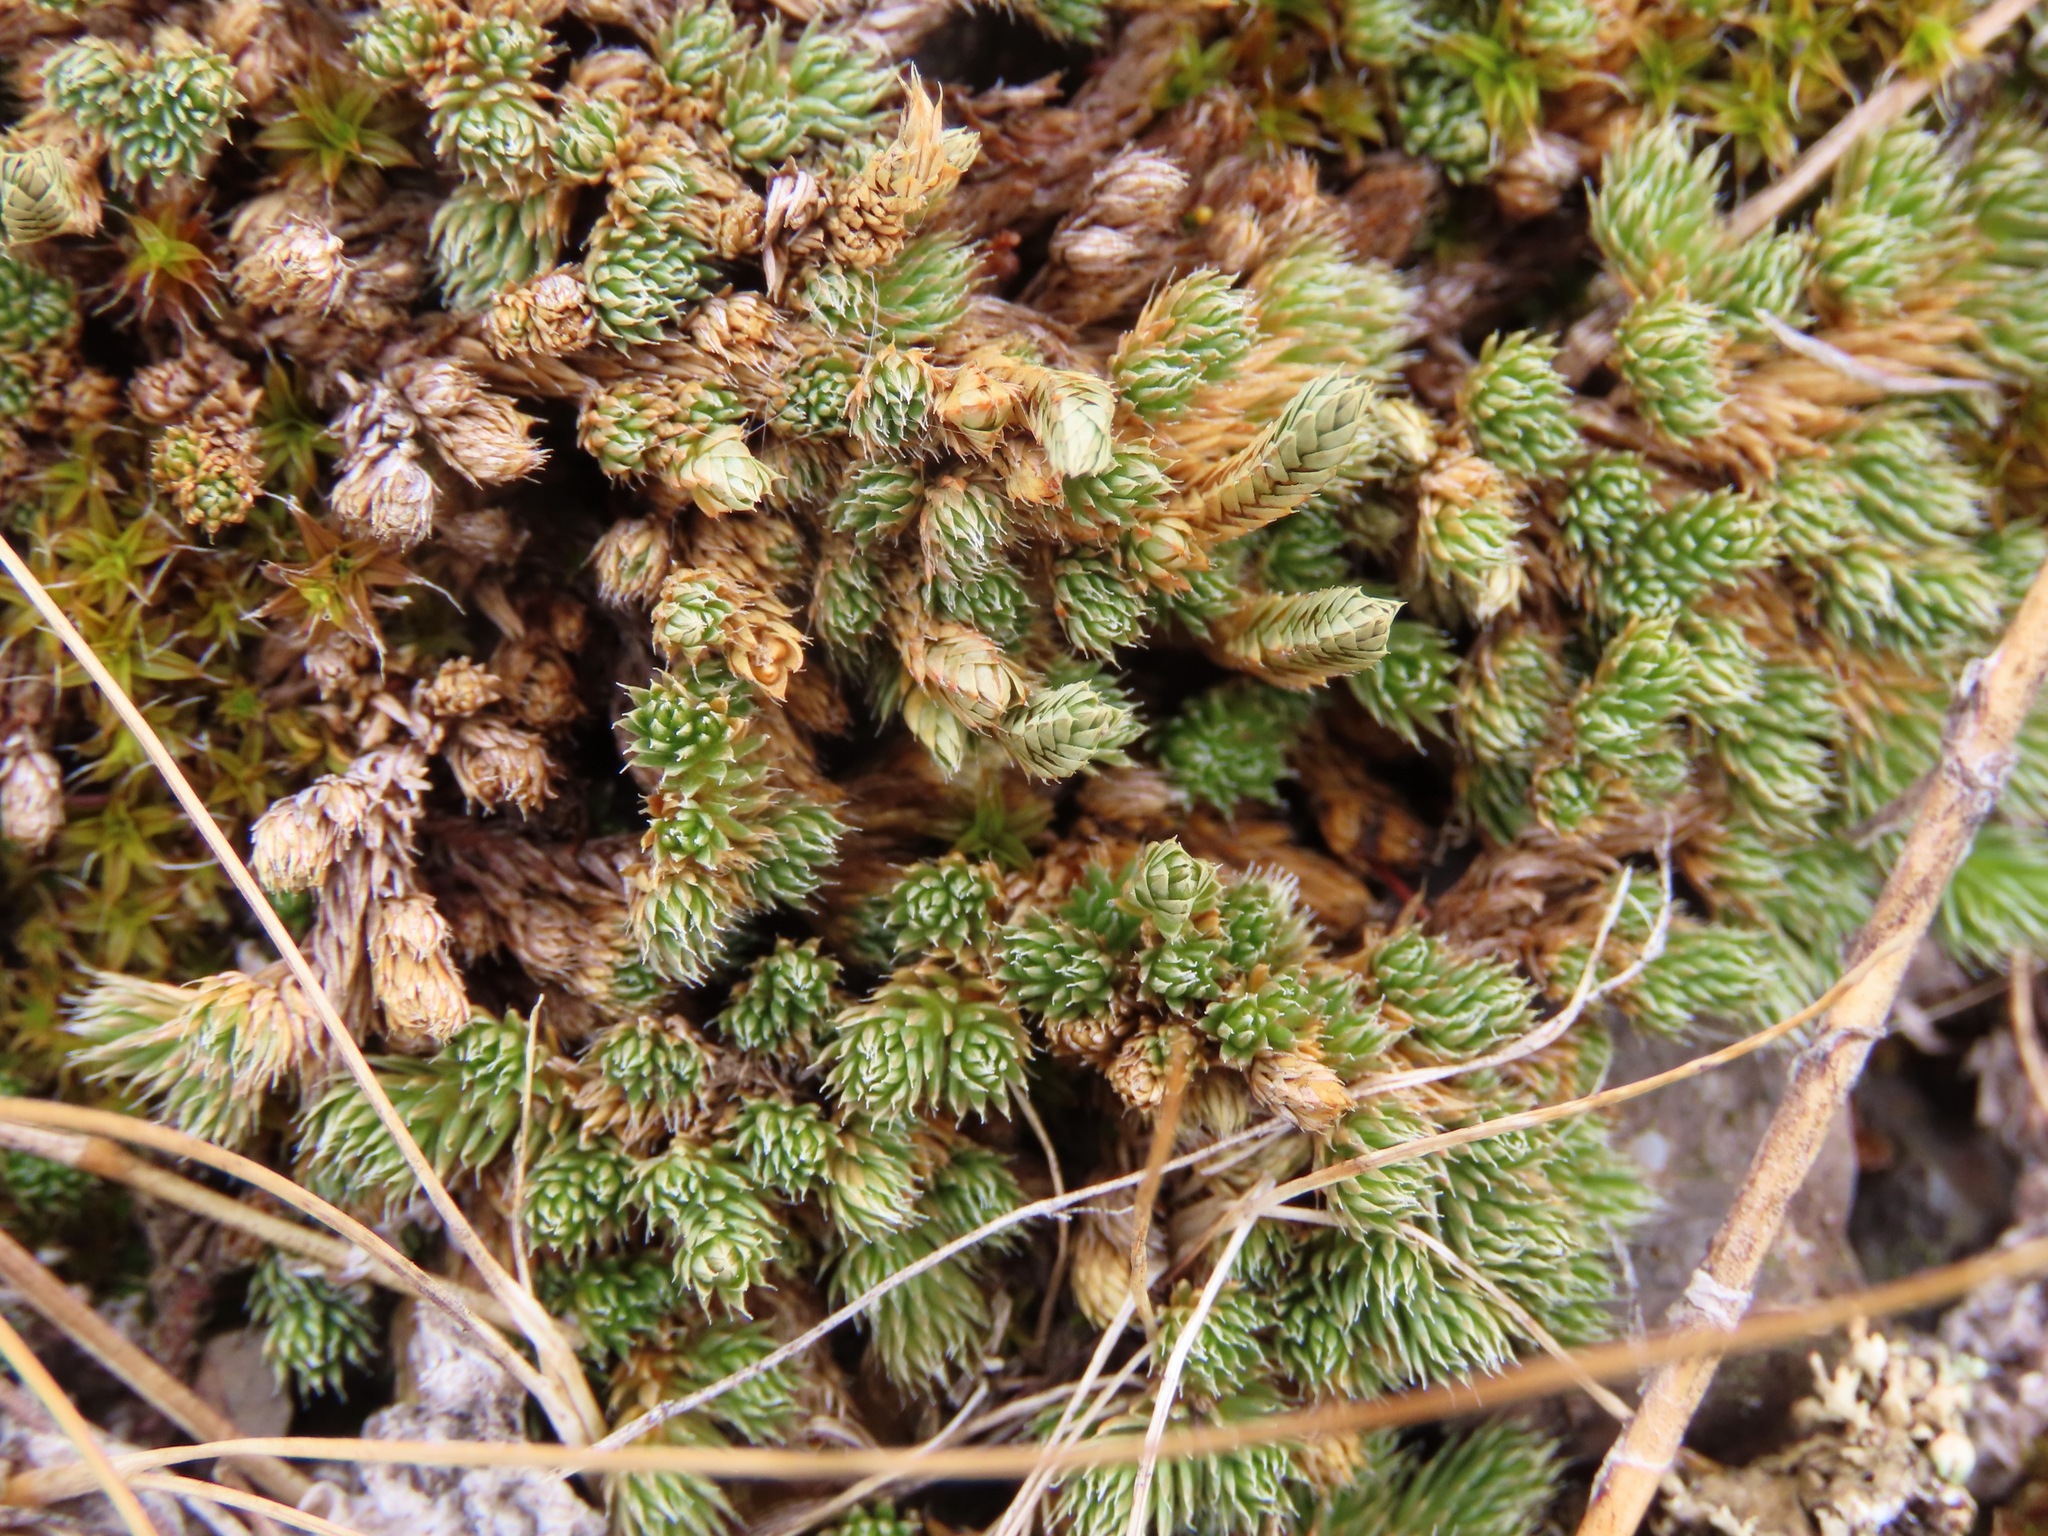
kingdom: Plantae
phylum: Tracheophyta
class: Lycopodiopsida
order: Selaginellales
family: Selaginellaceae
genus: Selaginella
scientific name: Selaginella densa
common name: Mountain spike-moss
